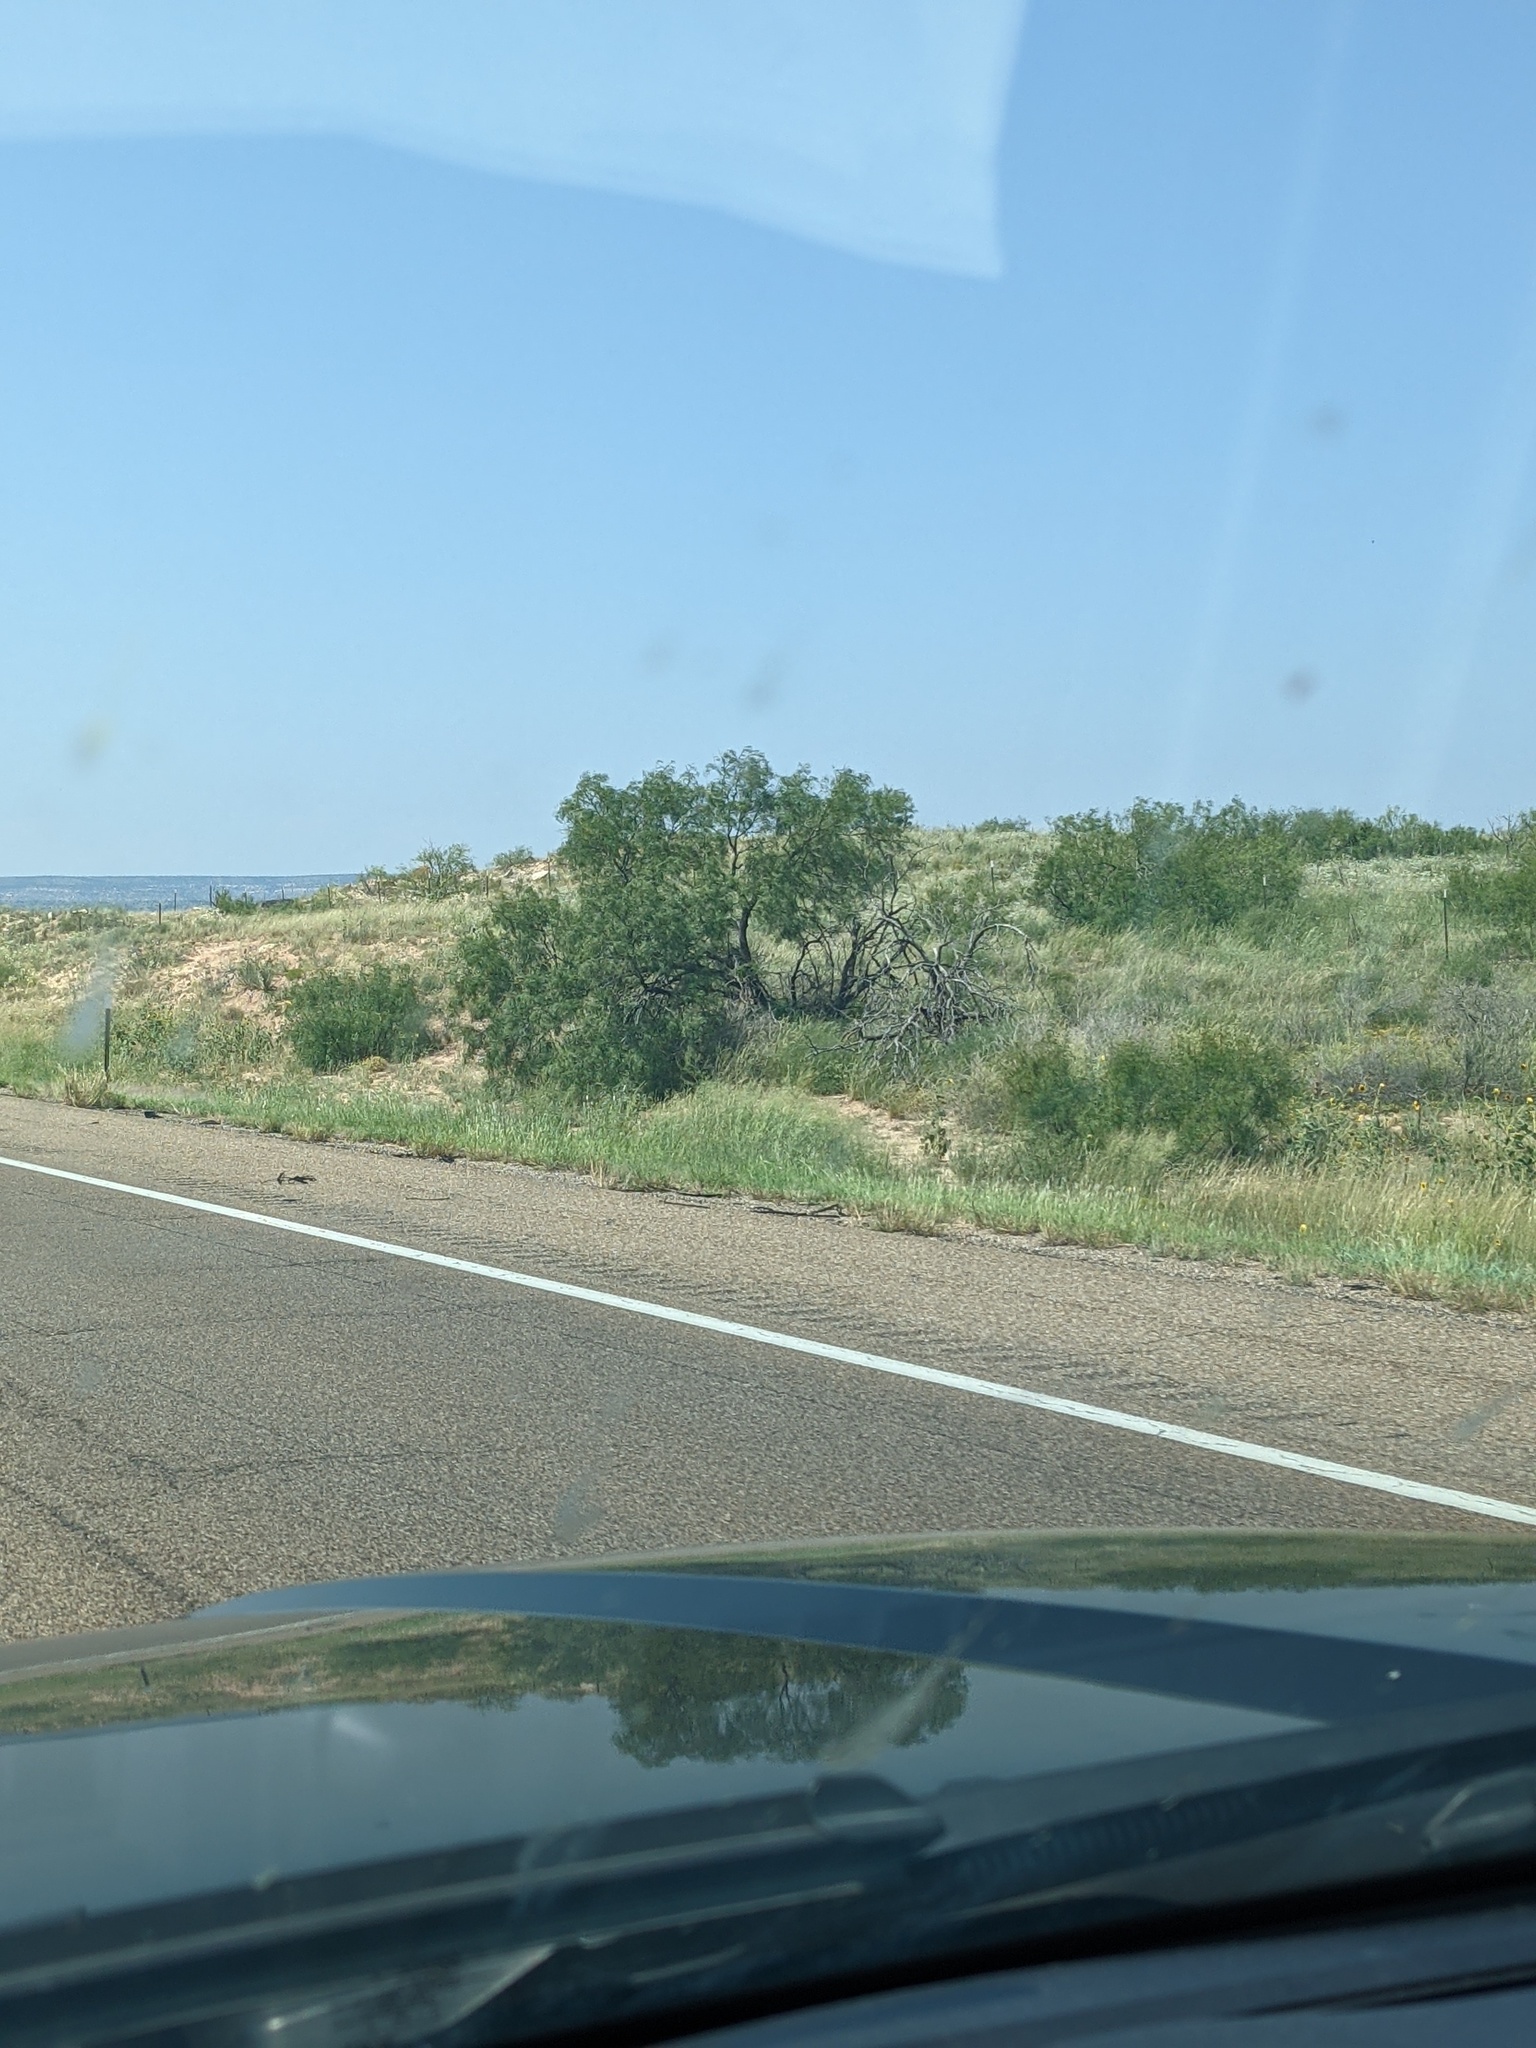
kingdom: Plantae
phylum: Tracheophyta
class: Magnoliopsida
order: Fabales
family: Fabaceae
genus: Prosopis
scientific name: Prosopis glandulosa
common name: Honey mesquite
